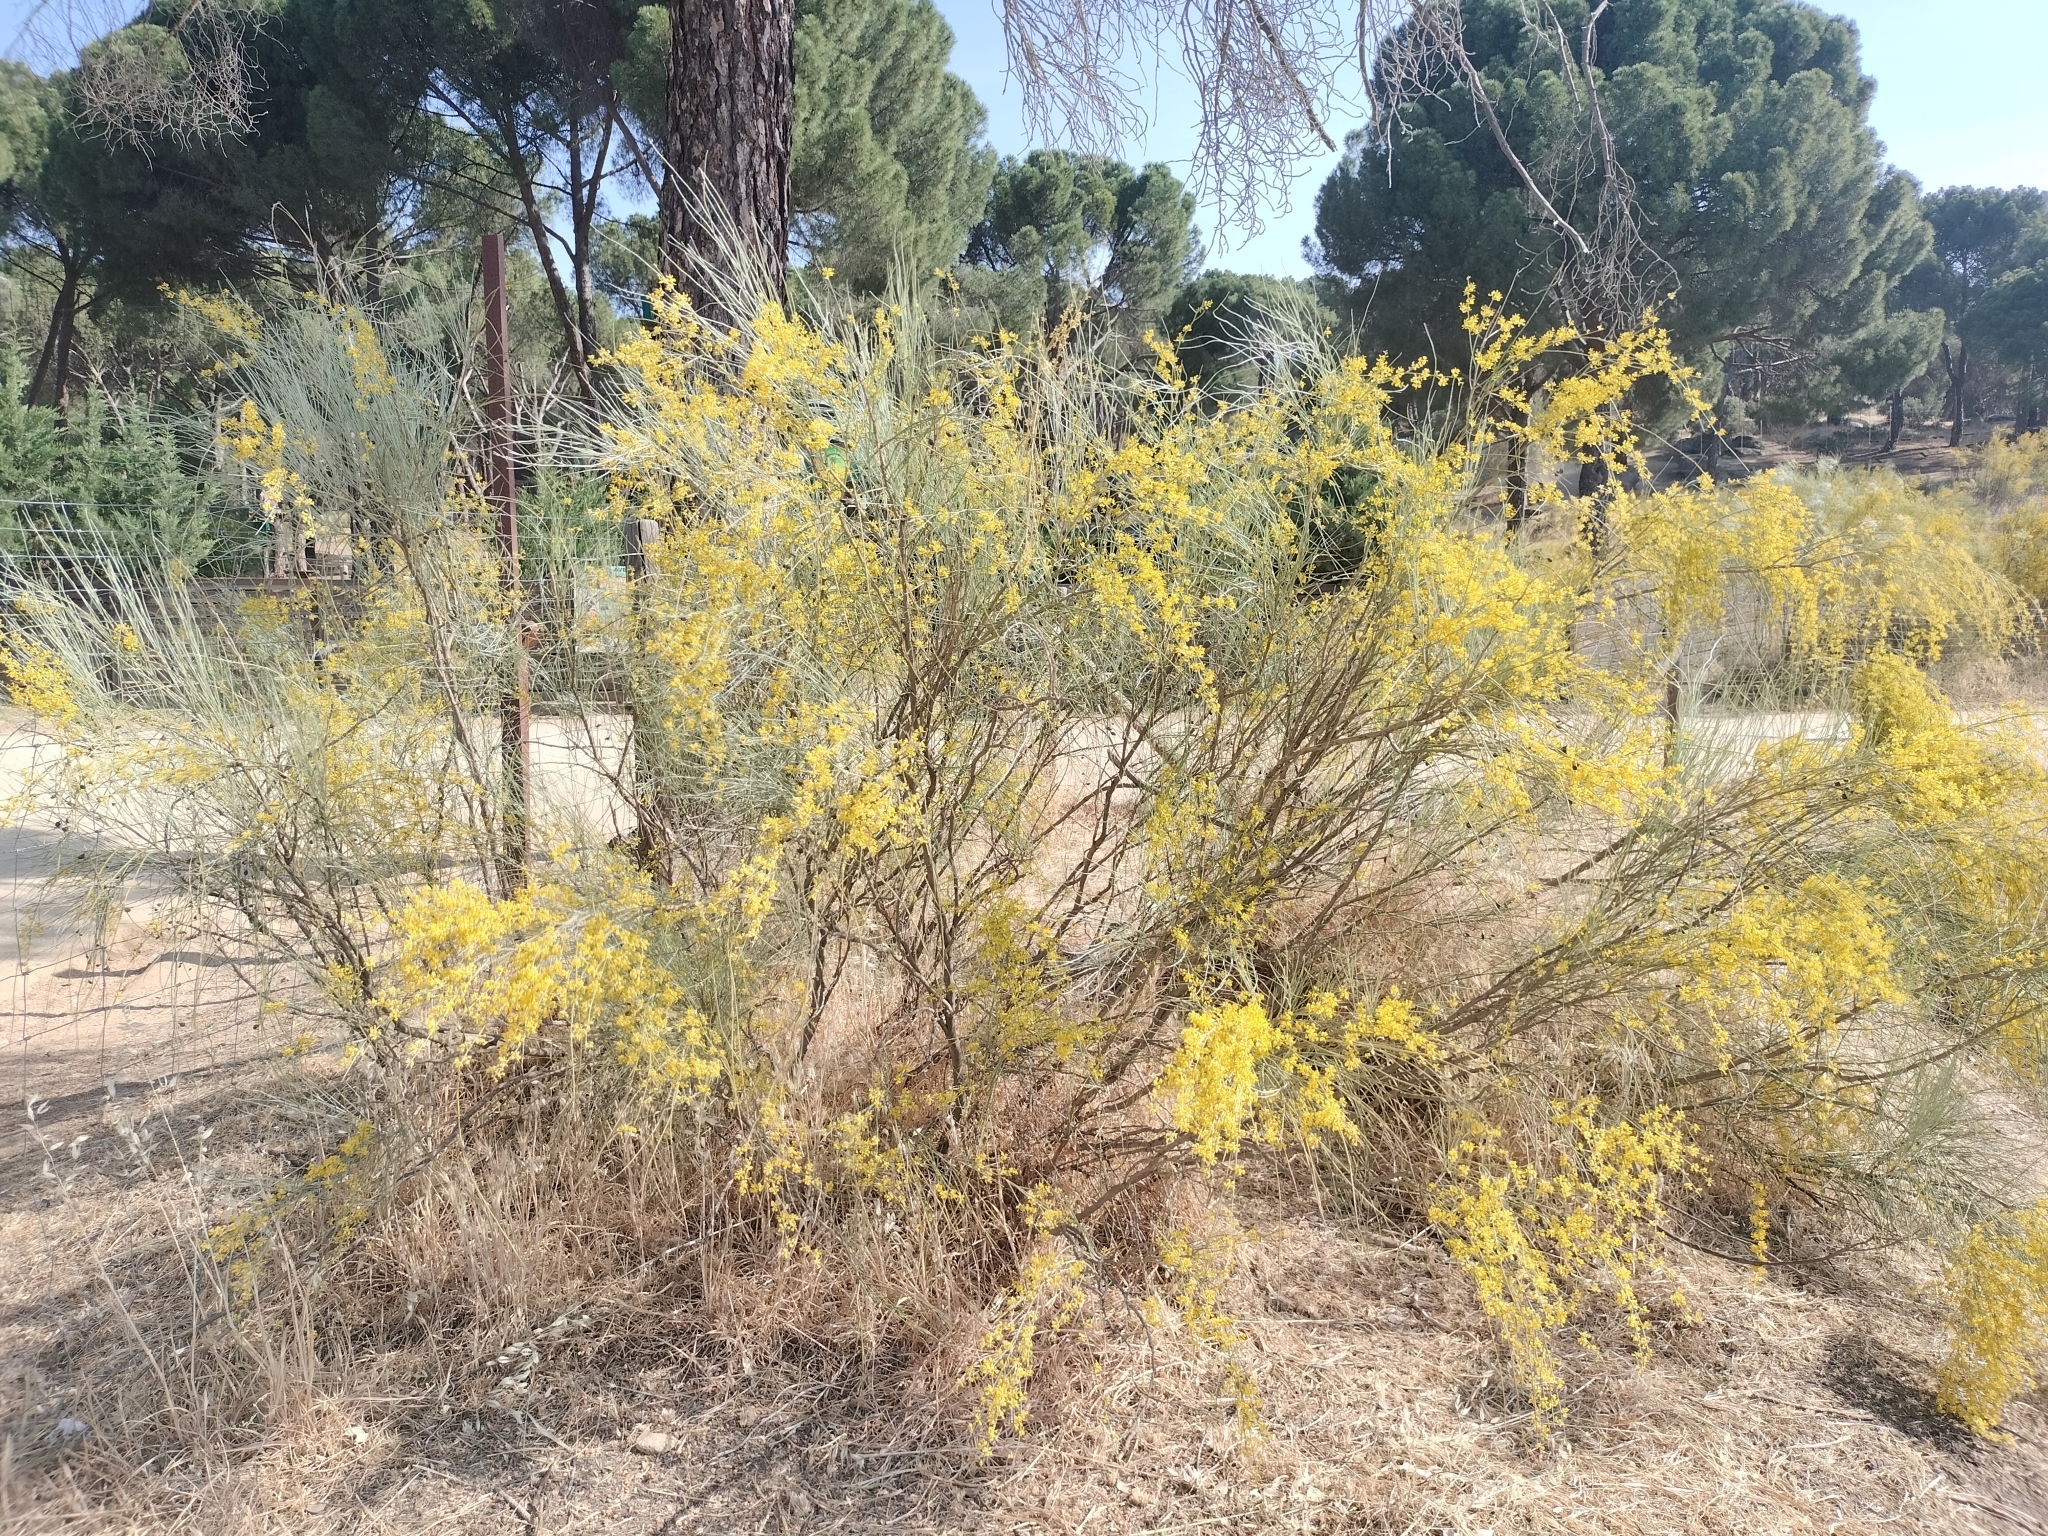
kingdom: Plantae
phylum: Tracheophyta
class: Magnoliopsida
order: Fabales
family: Fabaceae
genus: Retama
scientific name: Retama sphaerocarpa
